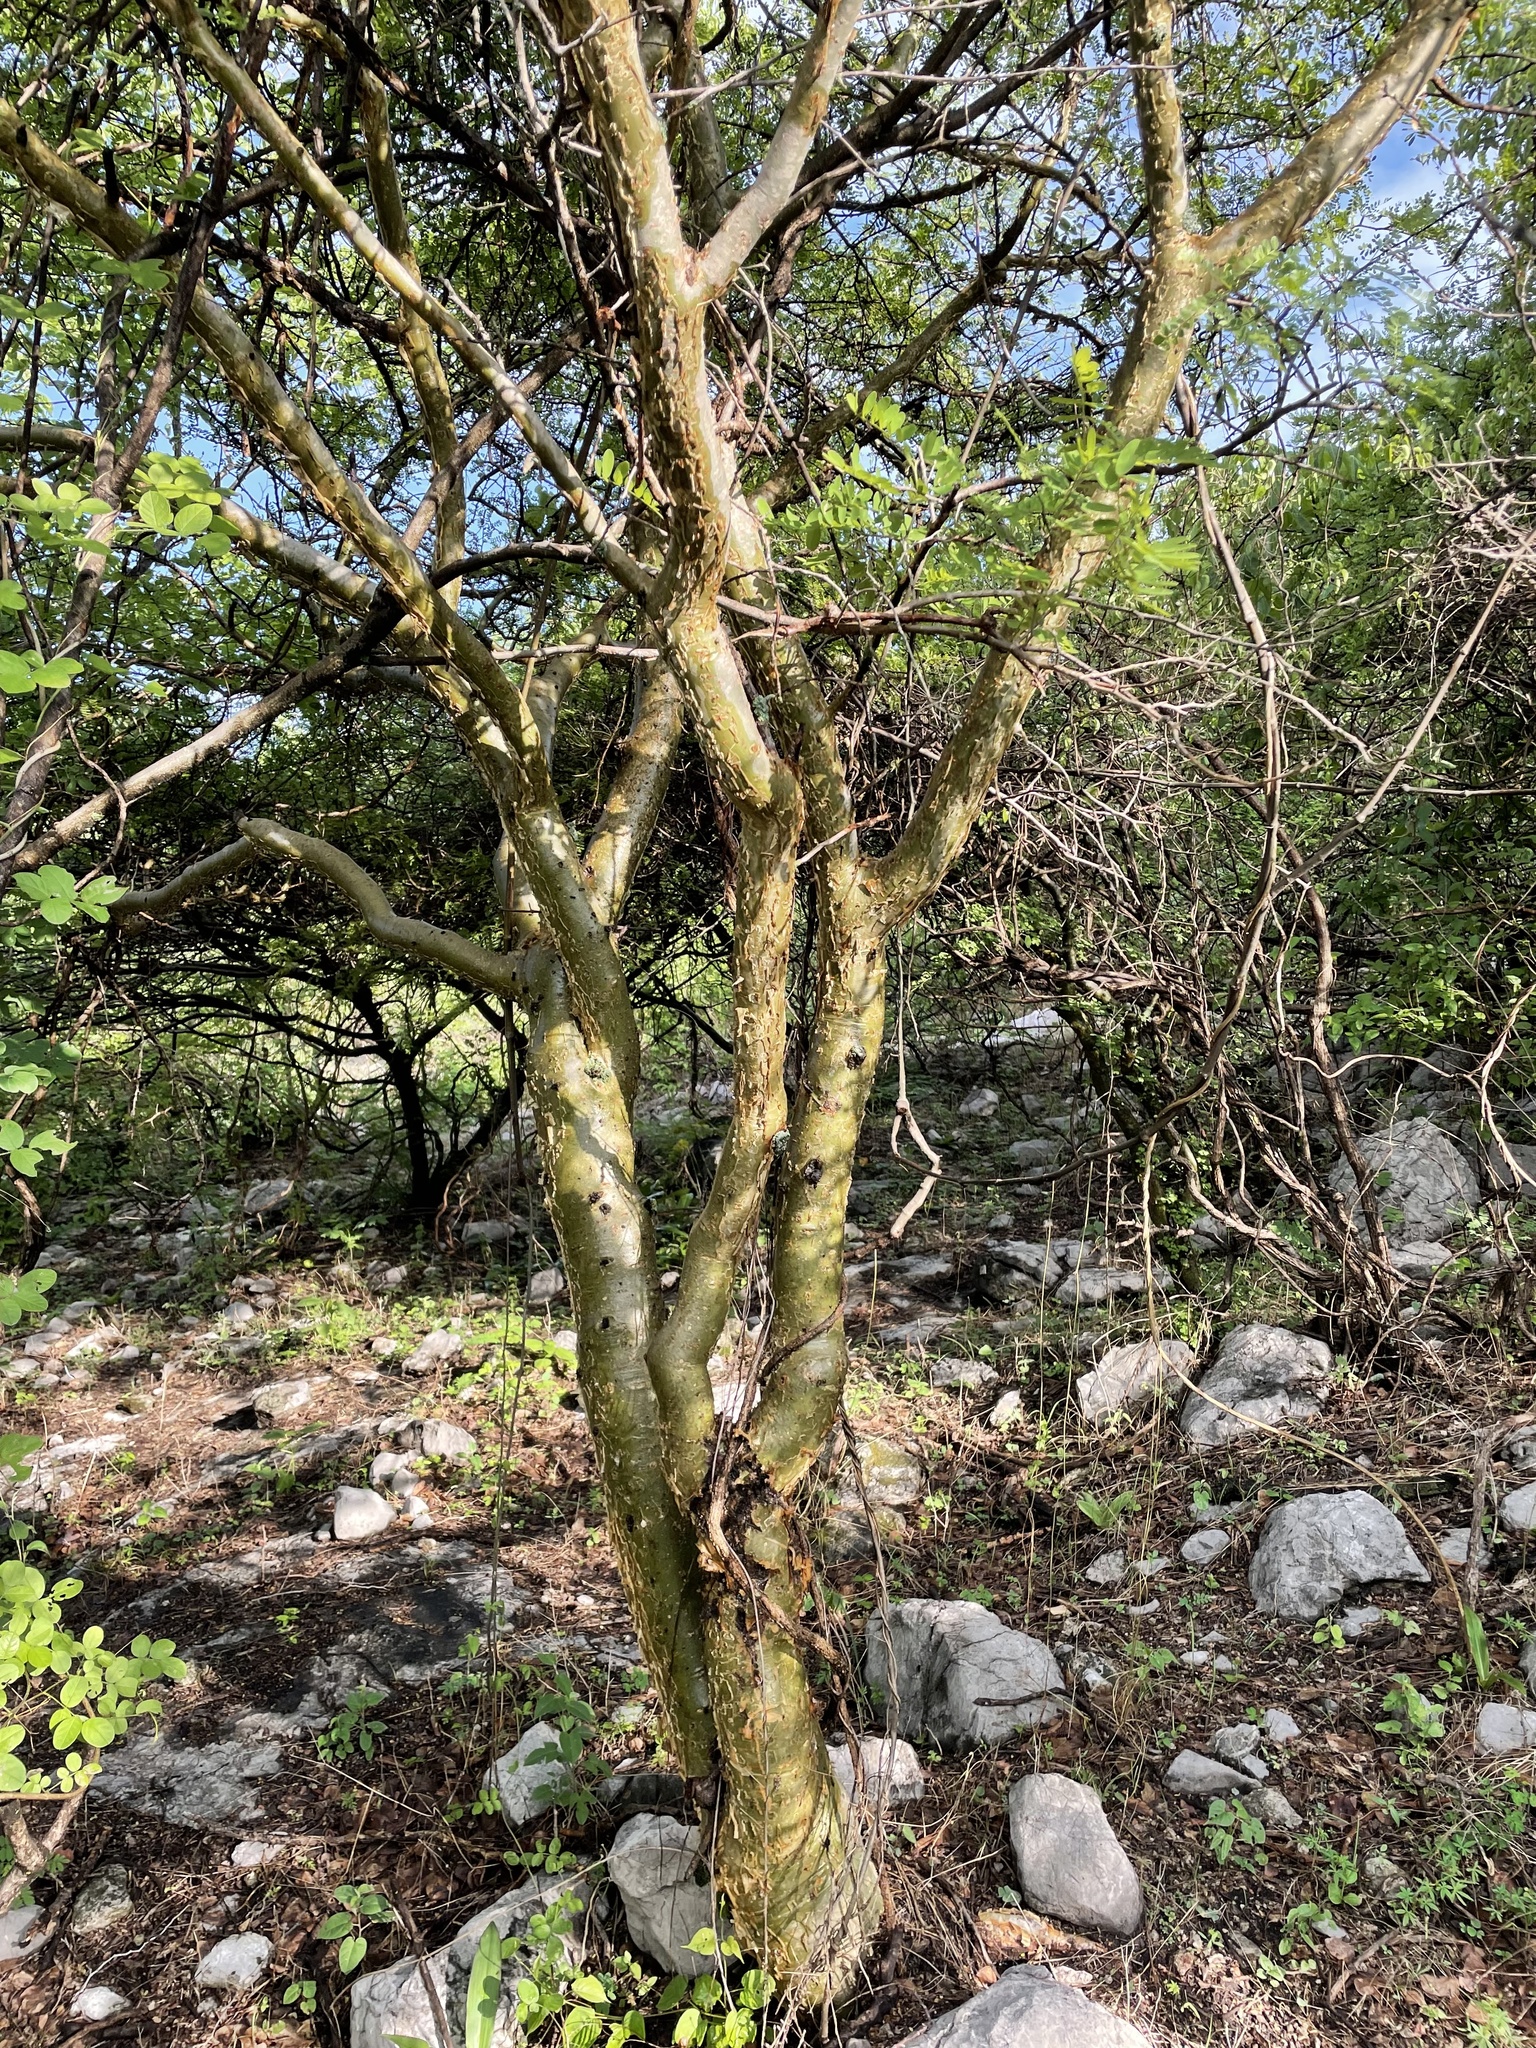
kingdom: Plantae
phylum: Tracheophyta
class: Magnoliopsida
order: Sapindales
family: Burseraceae
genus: Bursera
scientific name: Bursera aptera
